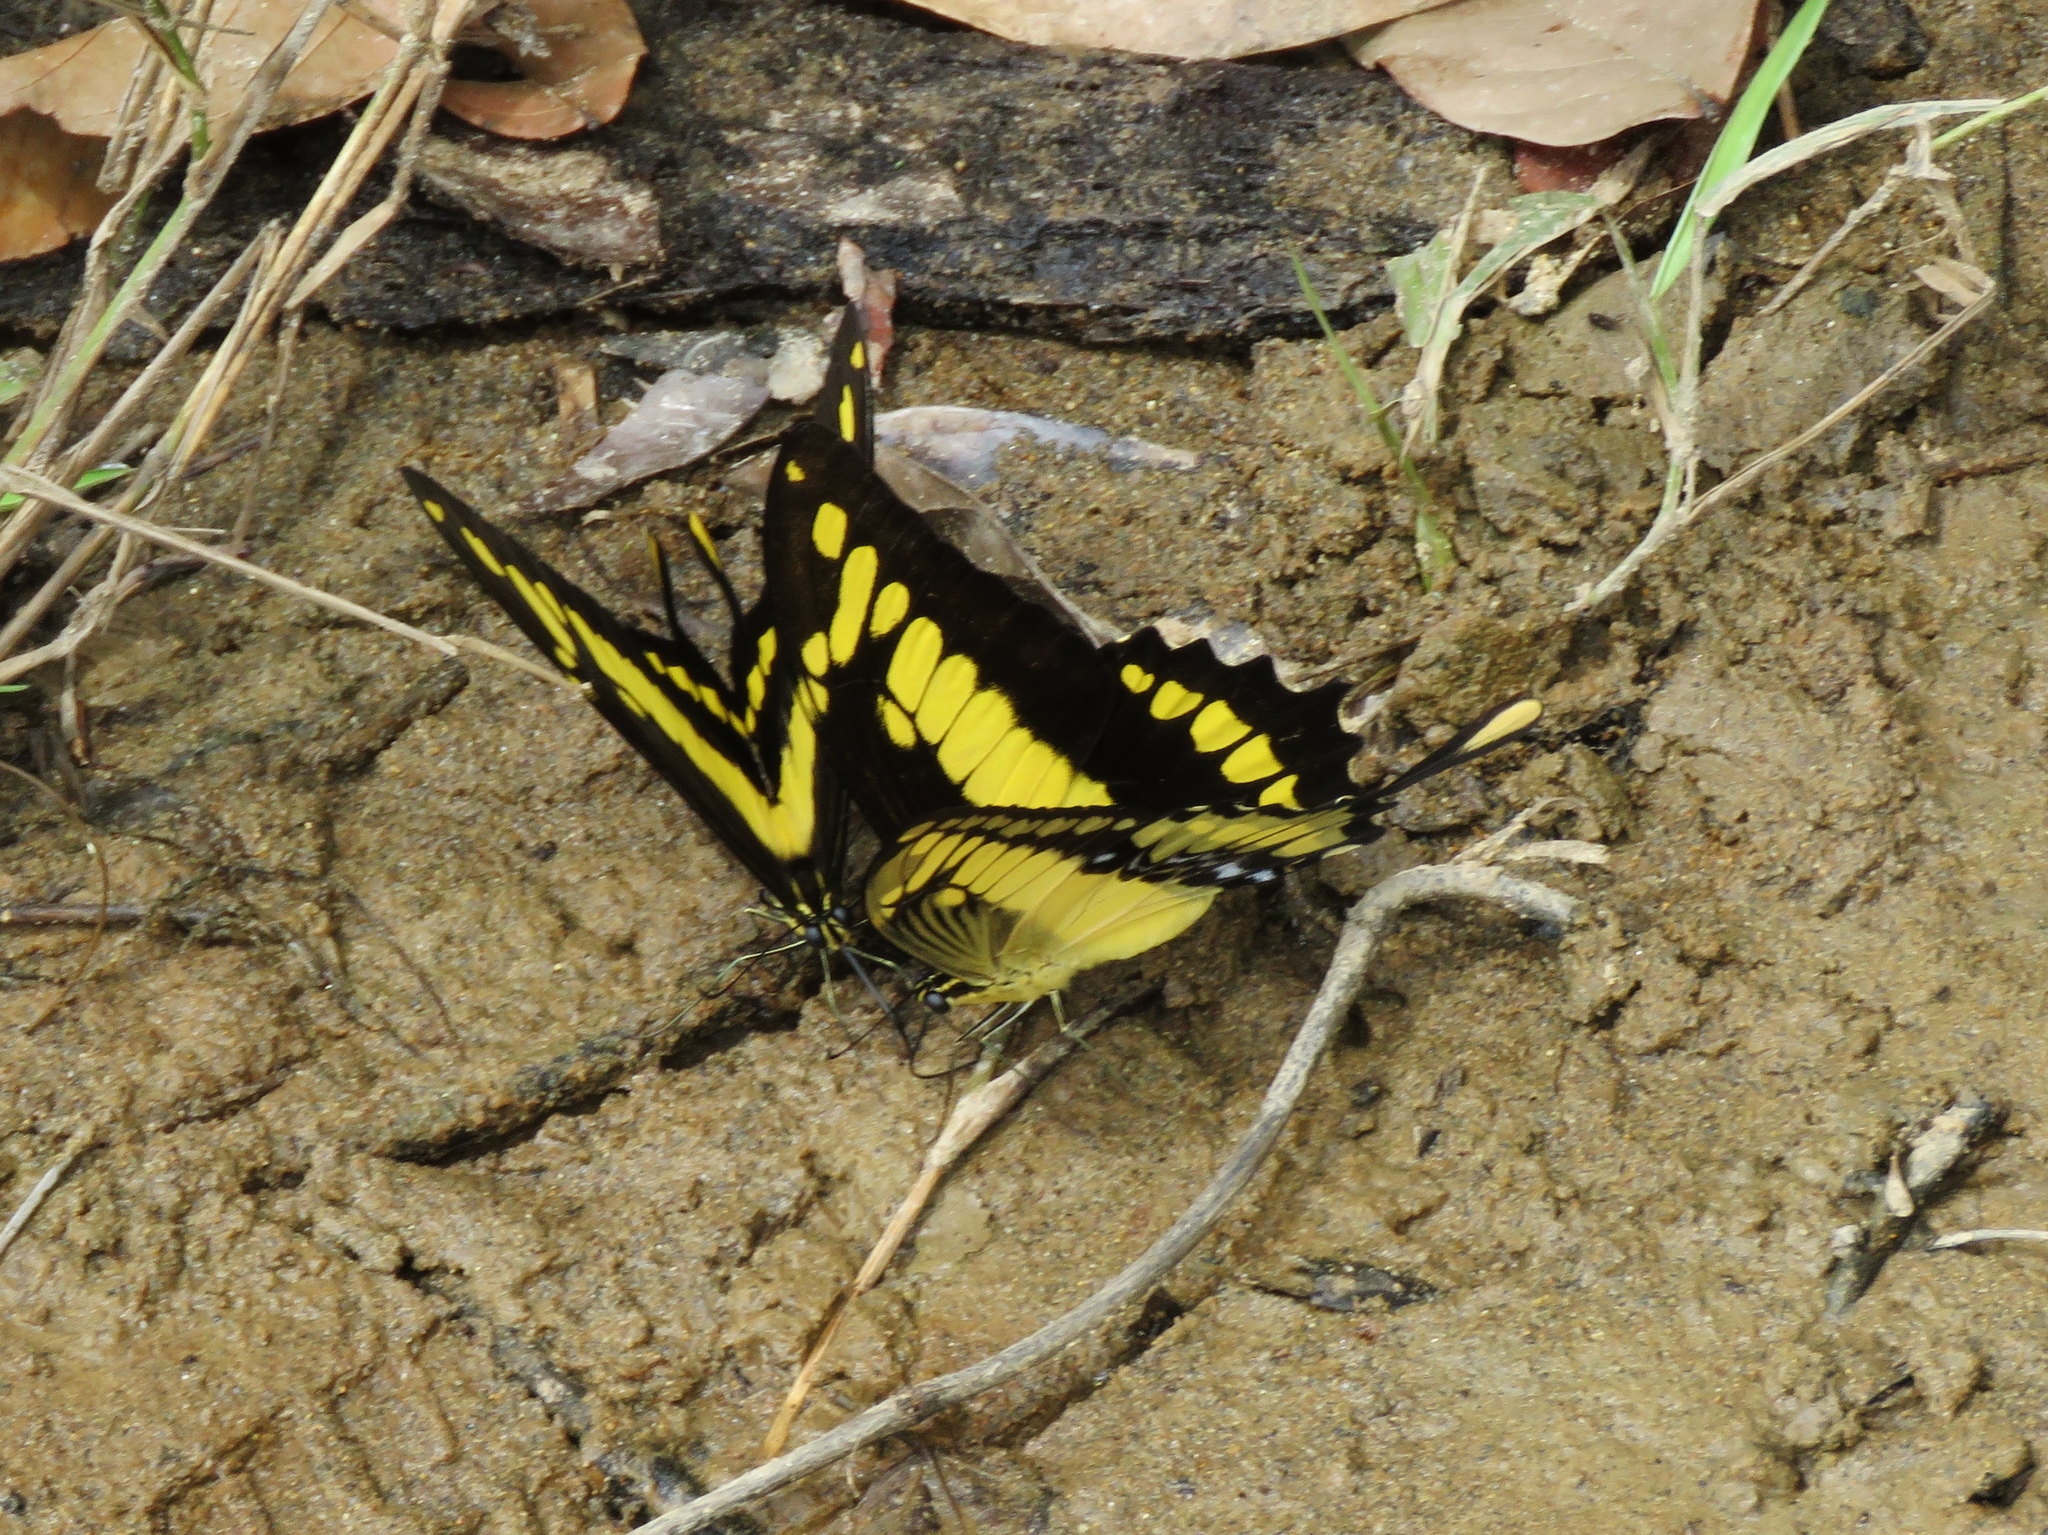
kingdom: Animalia
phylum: Arthropoda
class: Insecta
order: Lepidoptera
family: Papilionidae
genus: Papilio
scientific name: Papilio thoas
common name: King swallowtail
